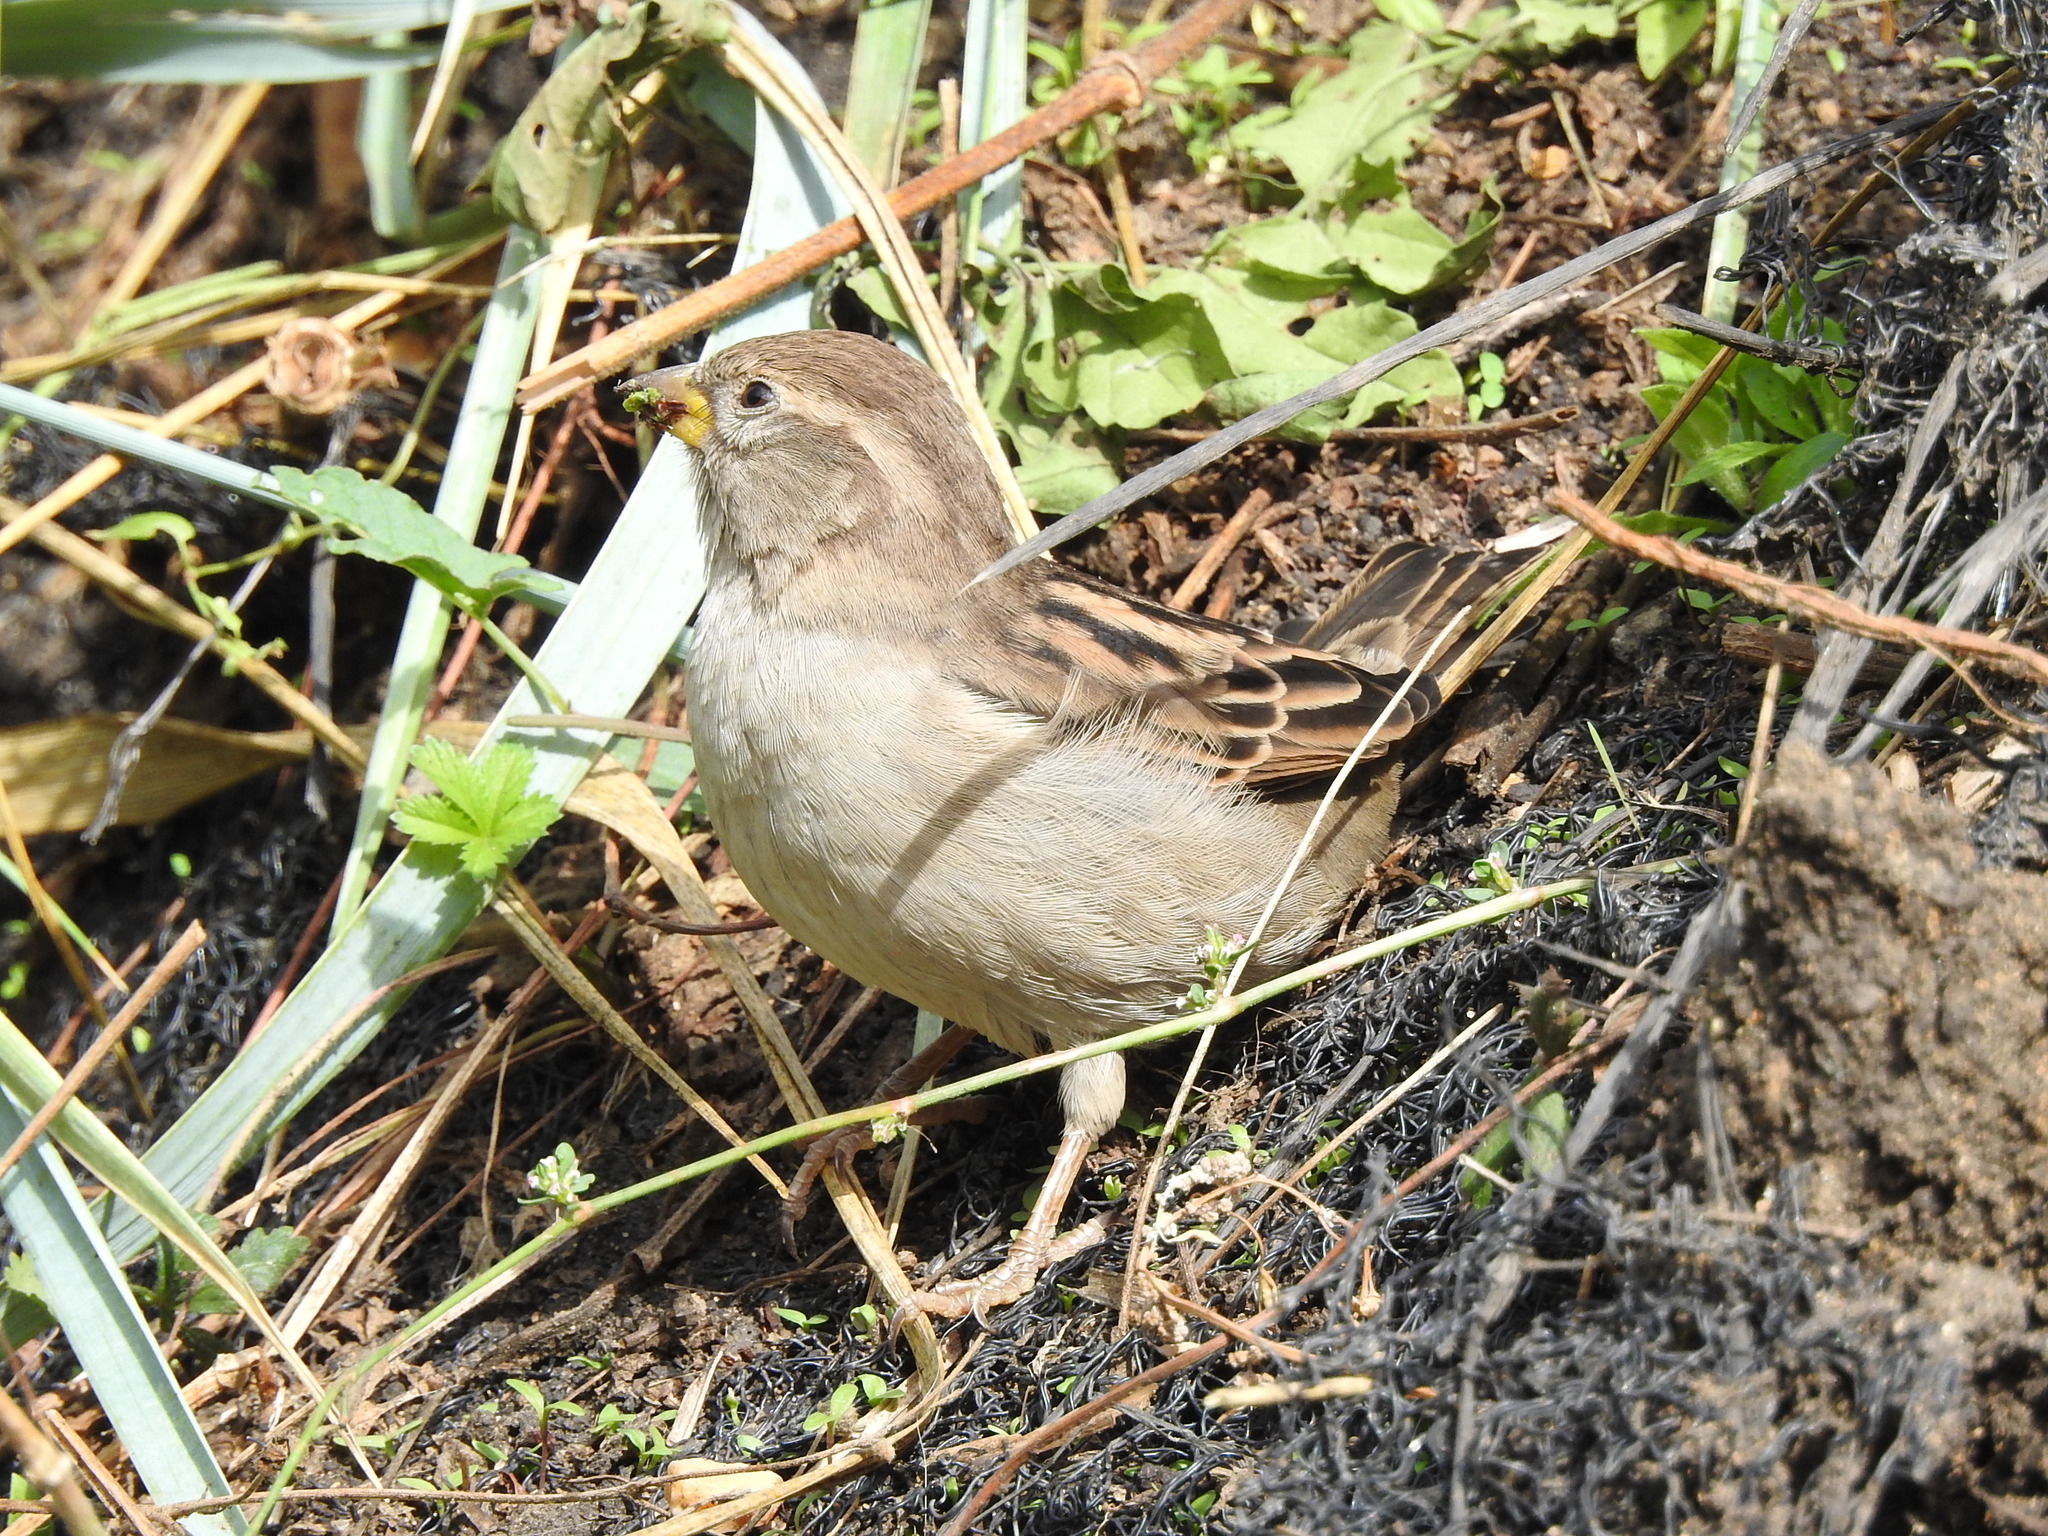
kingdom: Animalia
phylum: Chordata
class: Aves
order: Passeriformes
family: Passeridae
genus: Passer
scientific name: Passer domesticus
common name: House sparrow
